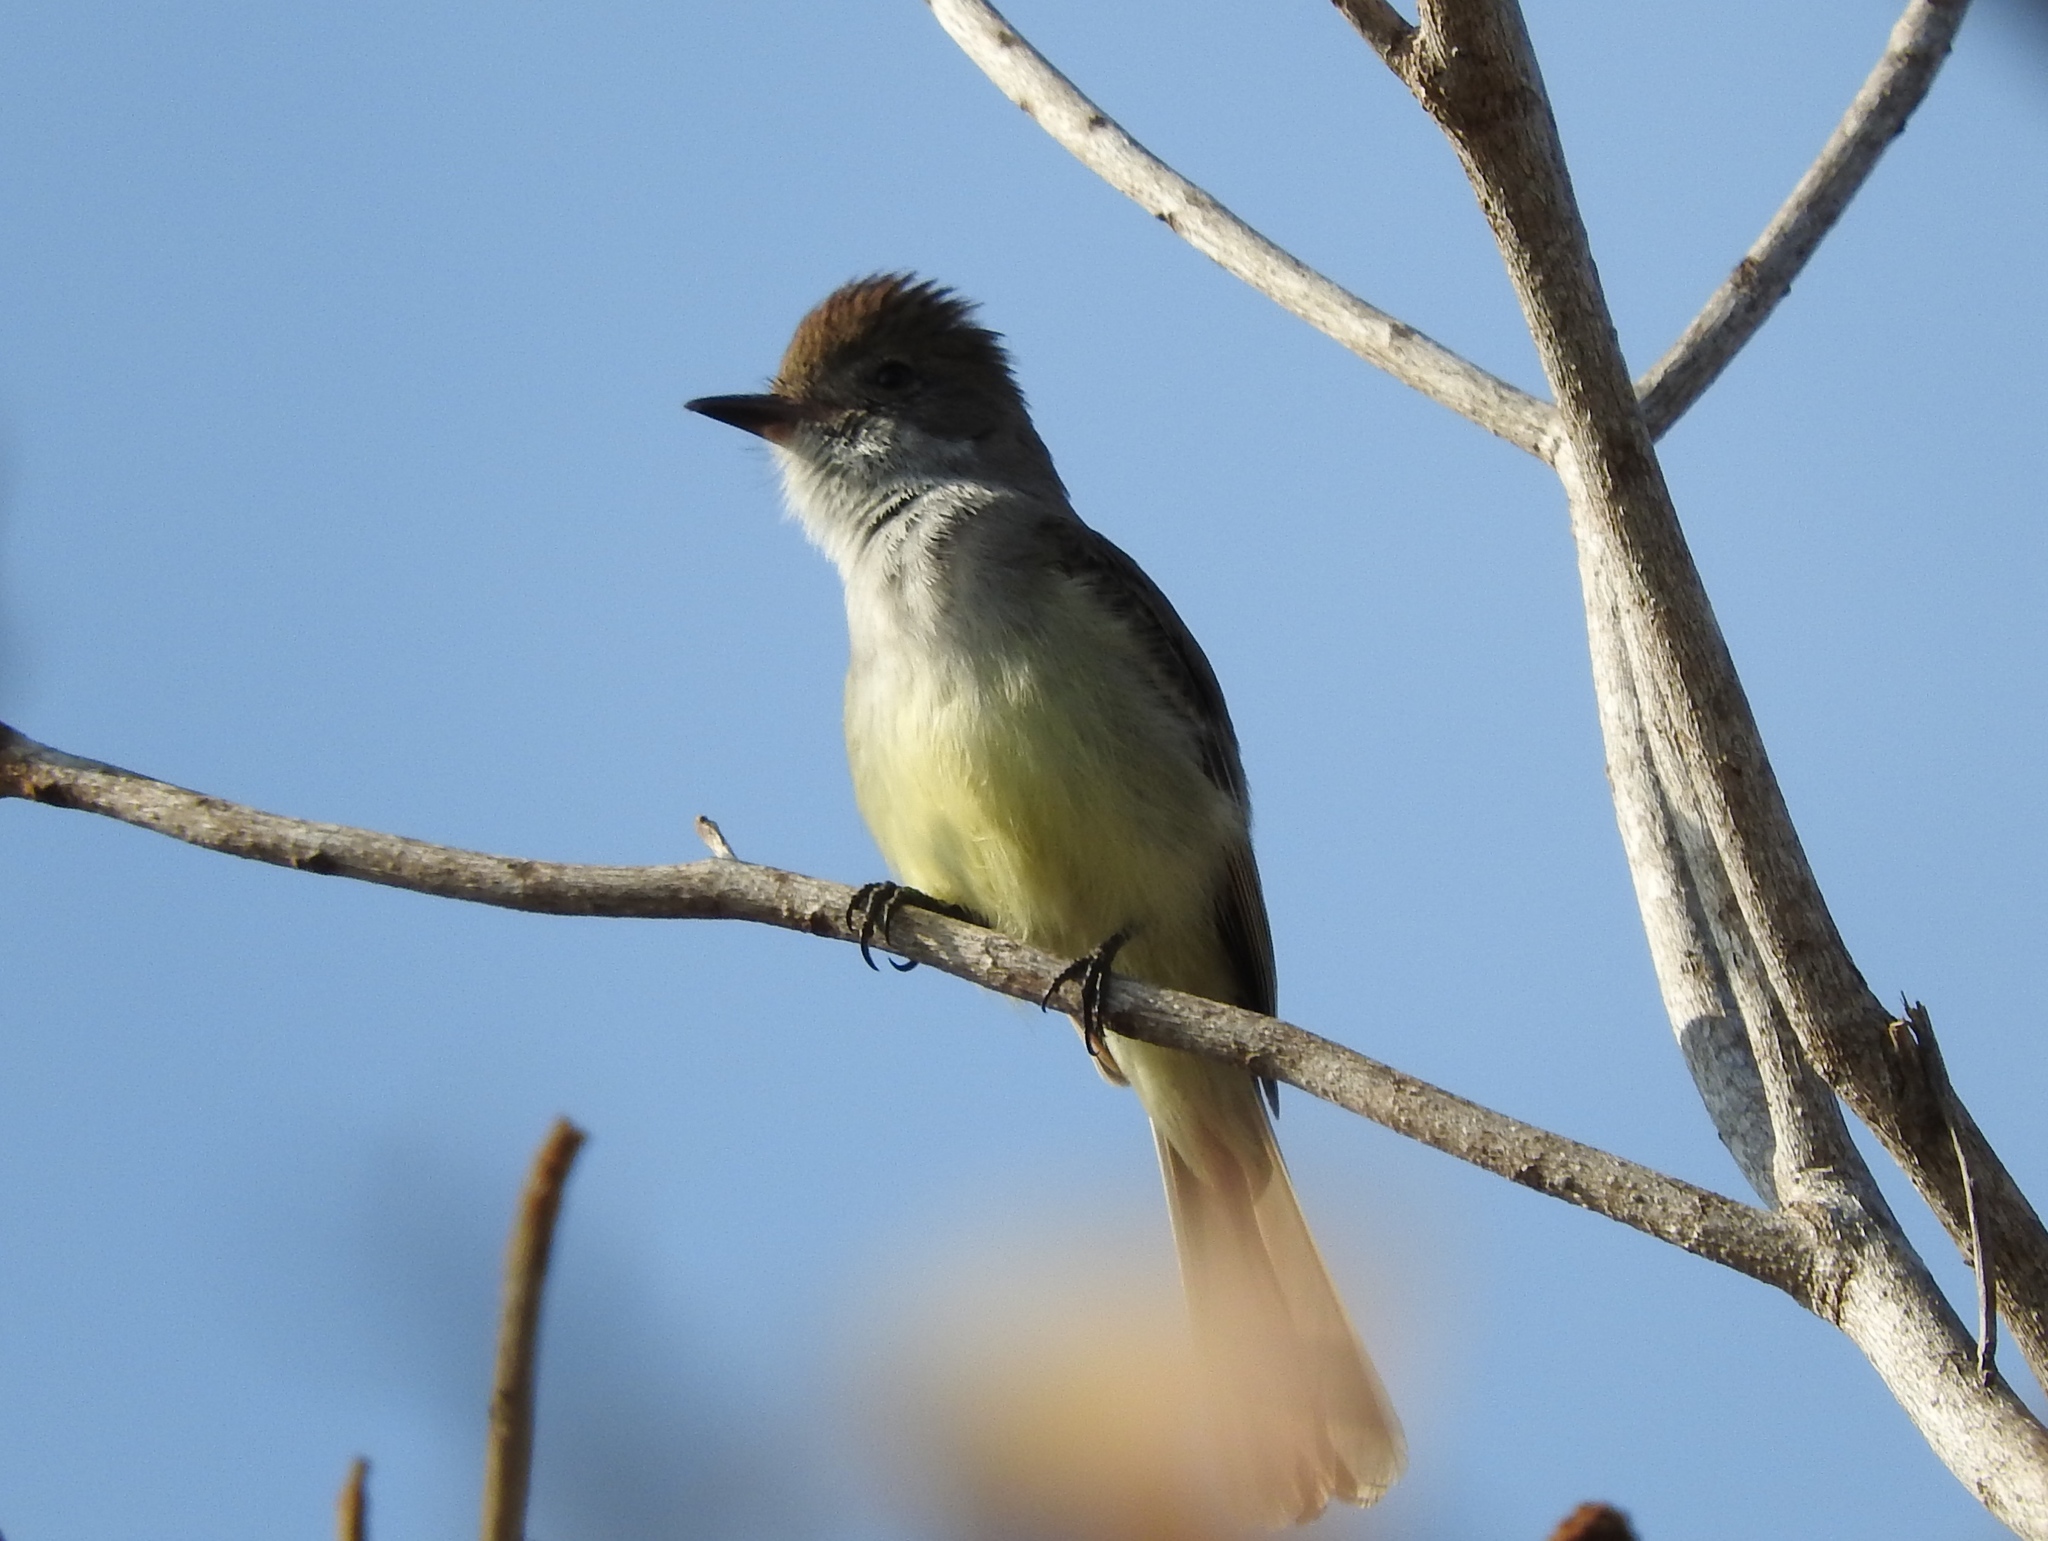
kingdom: Animalia
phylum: Chordata
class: Aves
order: Passeriformes
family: Tyrannidae
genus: Myiarchus
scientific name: Myiarchus
